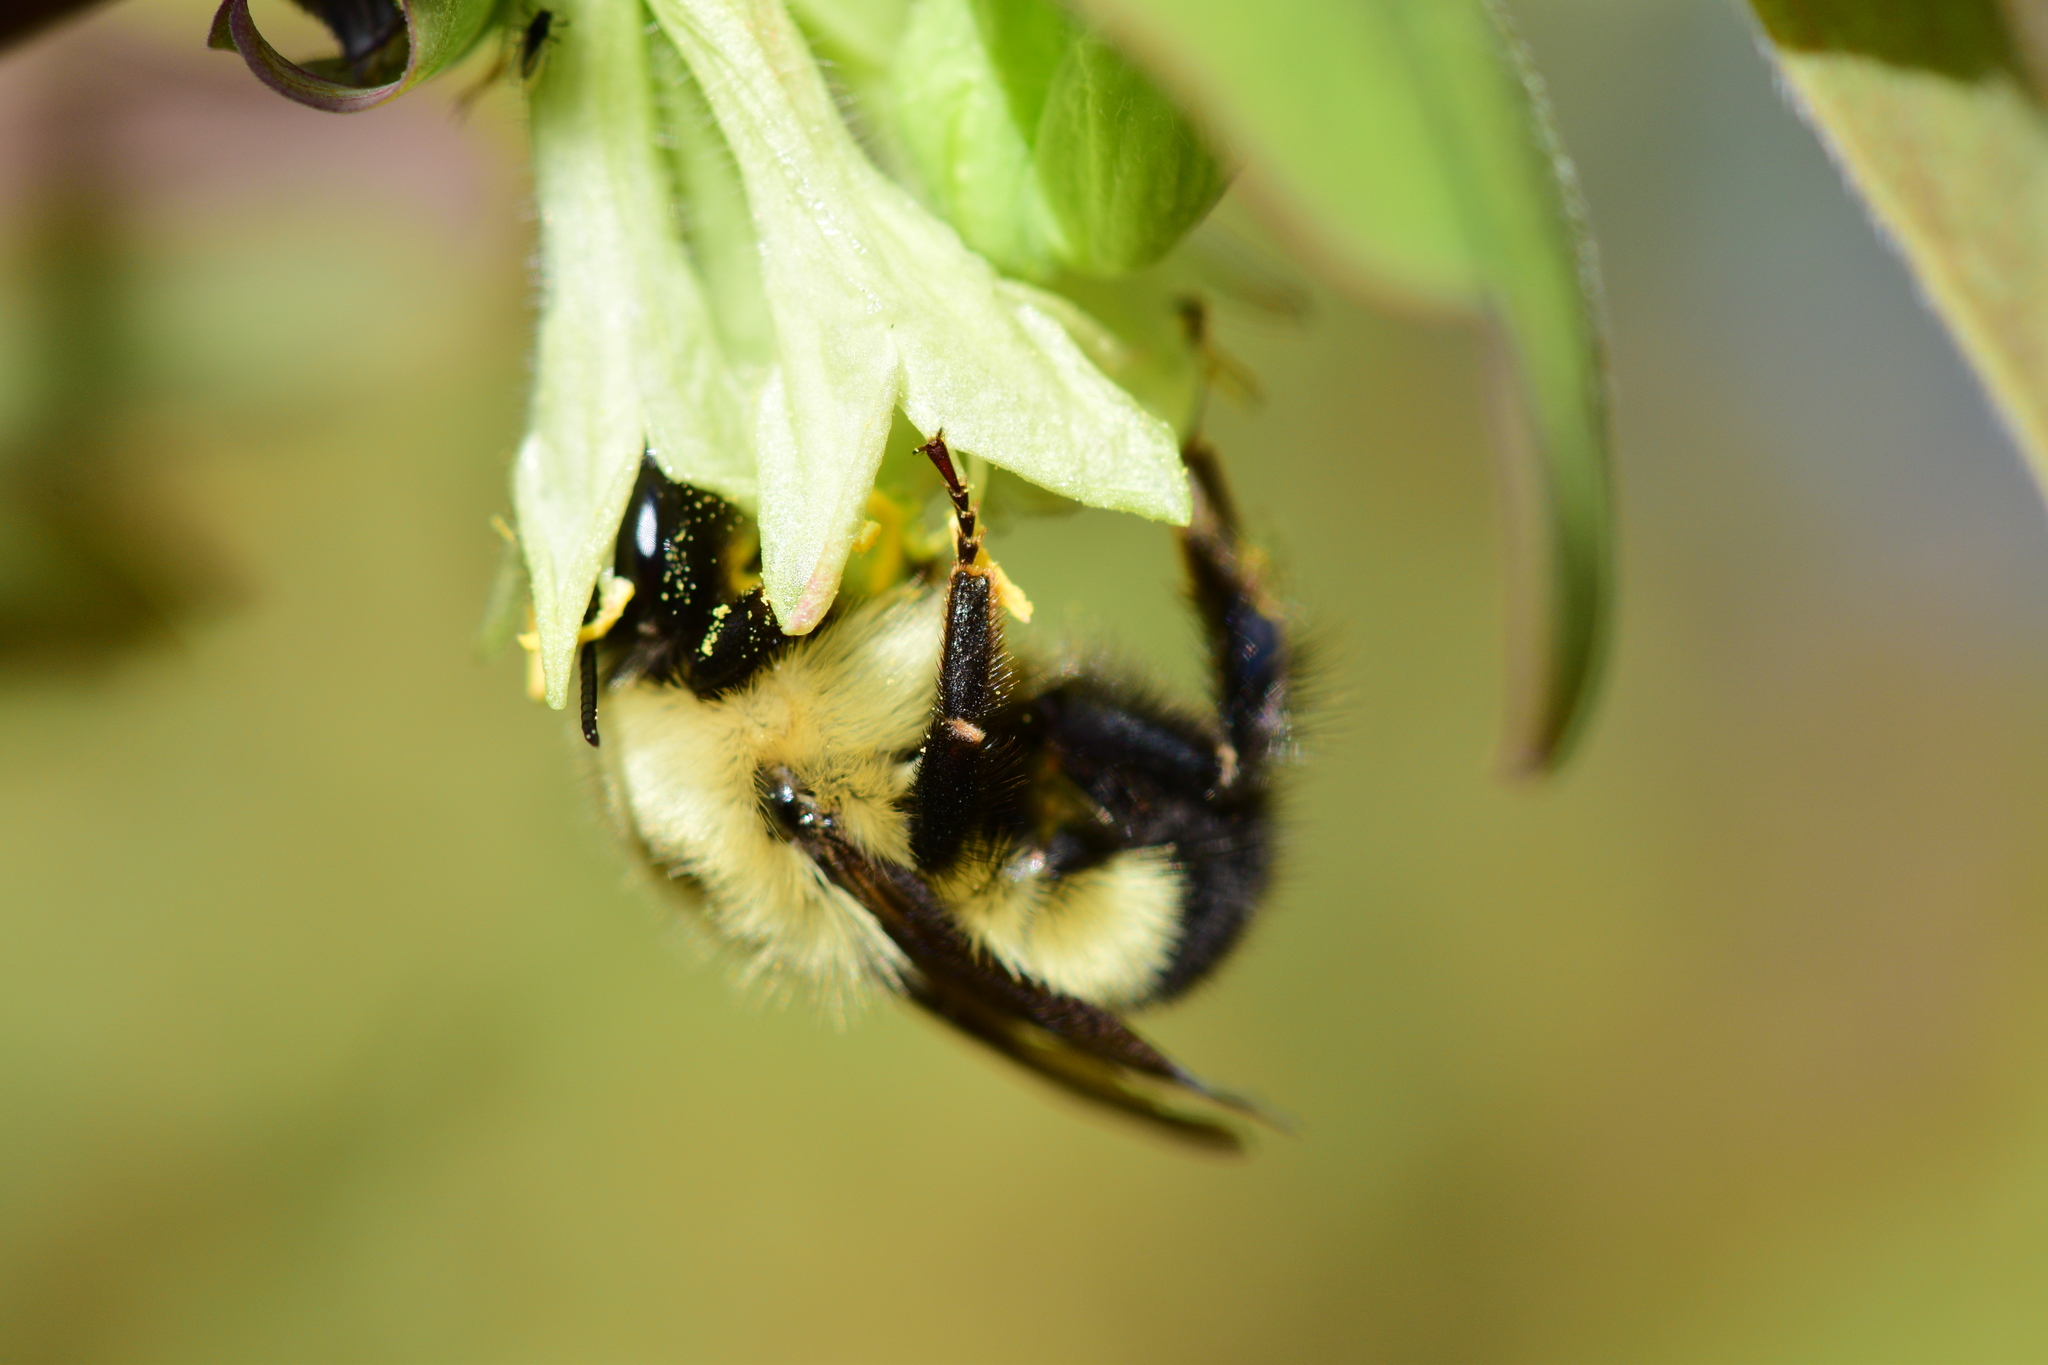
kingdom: Animalia
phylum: Arthropoda
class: Insecta
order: Hymenoptera
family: Apidae
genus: Bombus
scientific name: Bombus vagans
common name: Half-black bumble bee
